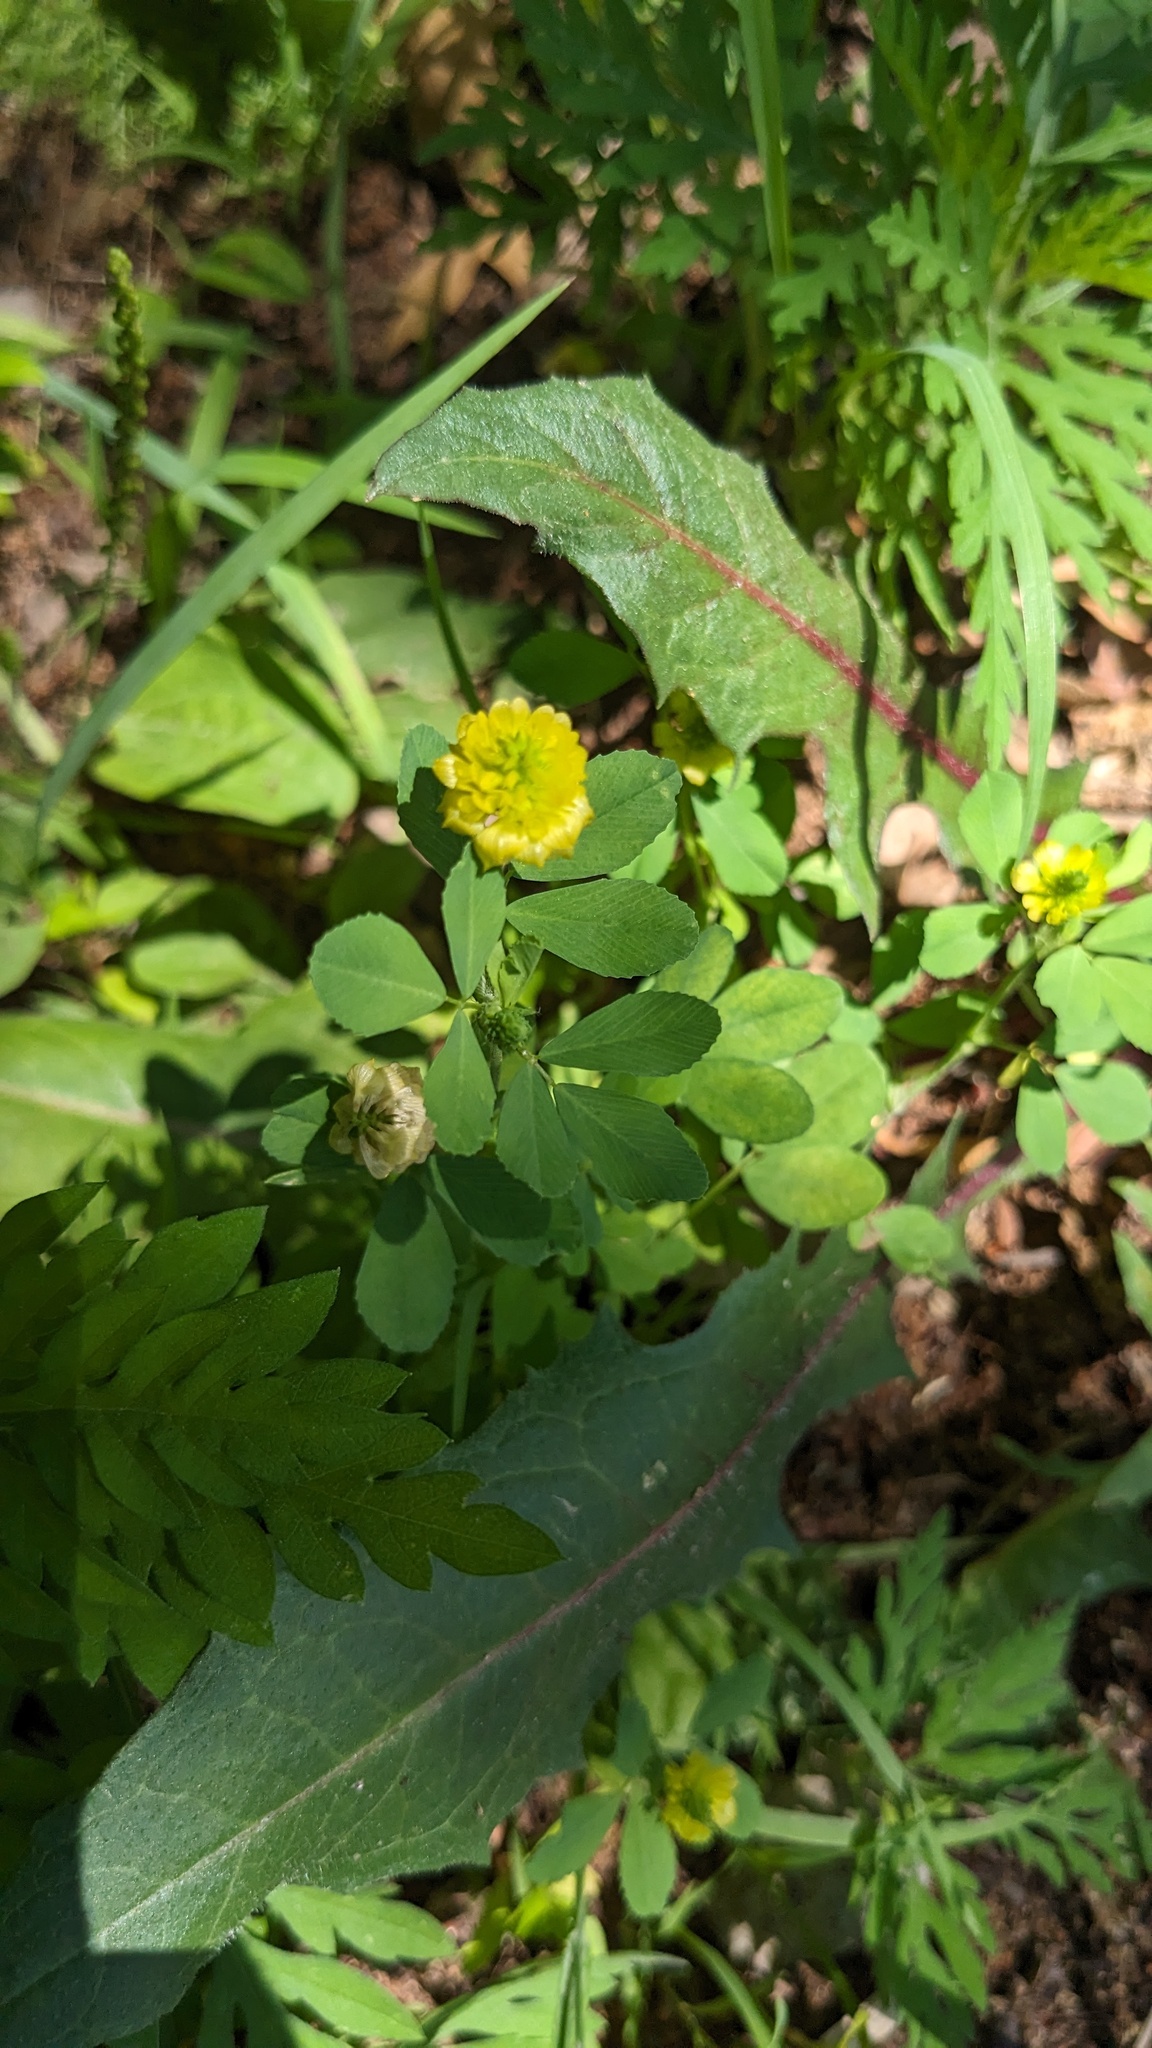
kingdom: Plantae
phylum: Tracheophyta
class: Magnoliopsida
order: Fabales
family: Fabaceae
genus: Trifolium
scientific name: Trifolium campestre
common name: Field clover
